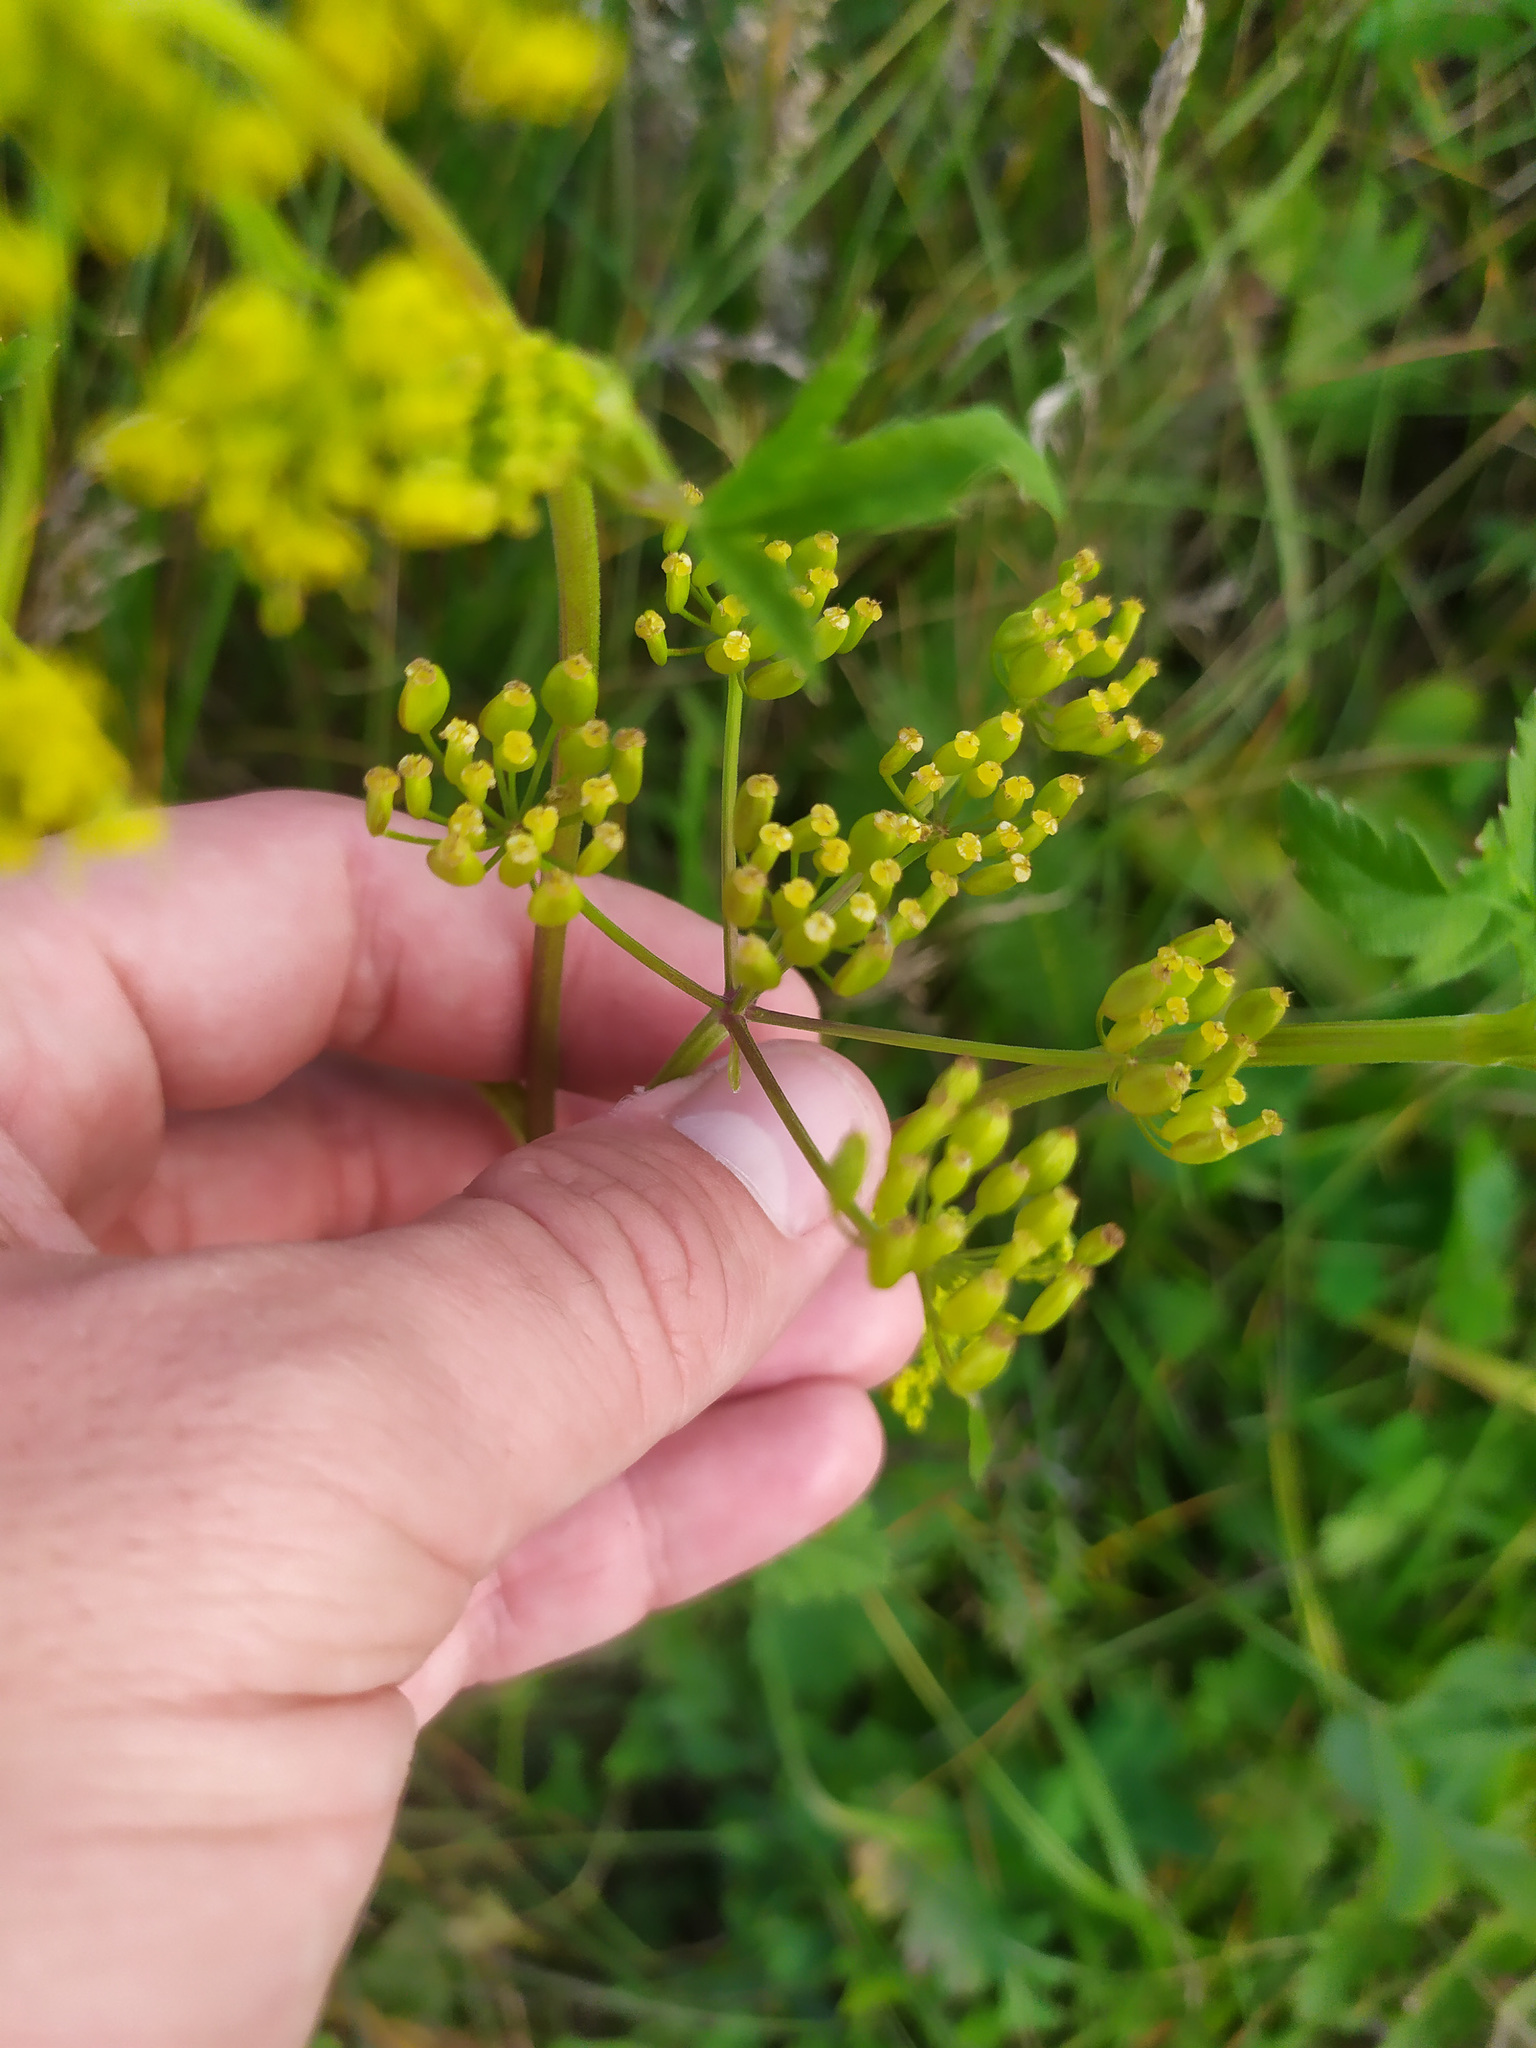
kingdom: Plantae
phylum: Tracheophyta
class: Magnoliopsida
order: Apiales
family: Apiaceae
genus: Pastinaca
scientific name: Pastinaca sativa
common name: Wild parsnip
